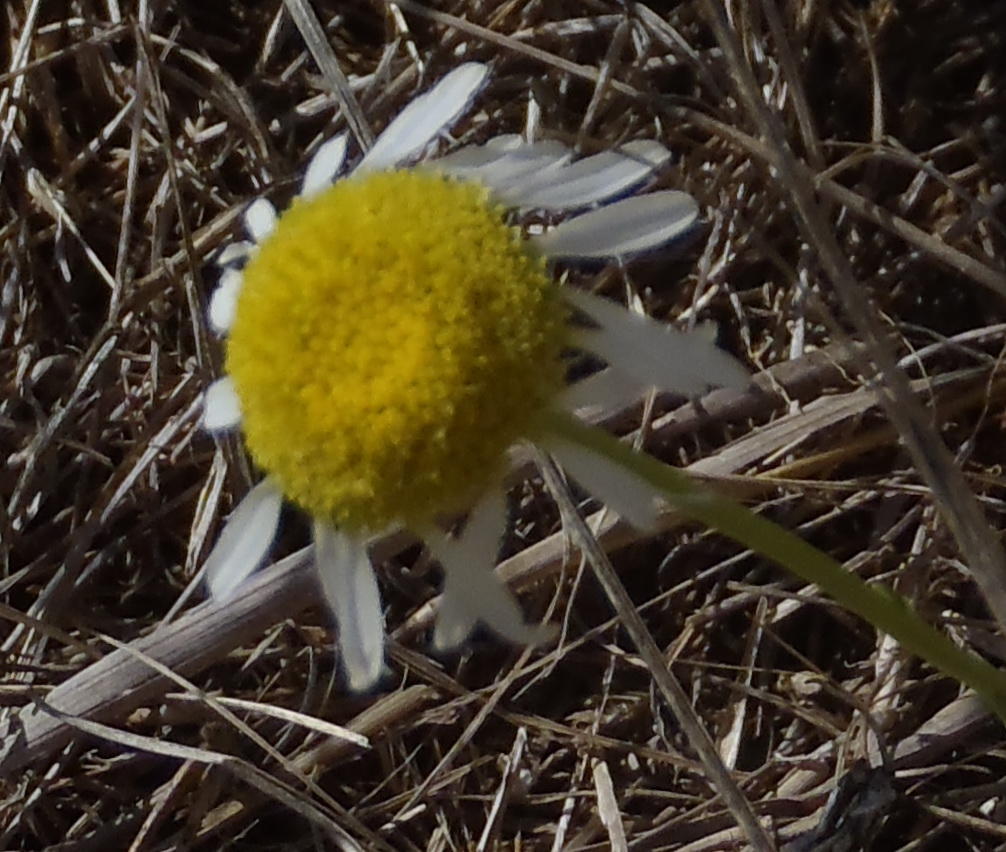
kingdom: Plantae
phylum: Tracheophyta
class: Magnoliopsida
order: Asterales
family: Asteraceae
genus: Garuleum
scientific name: Garuleum bipinnatum
